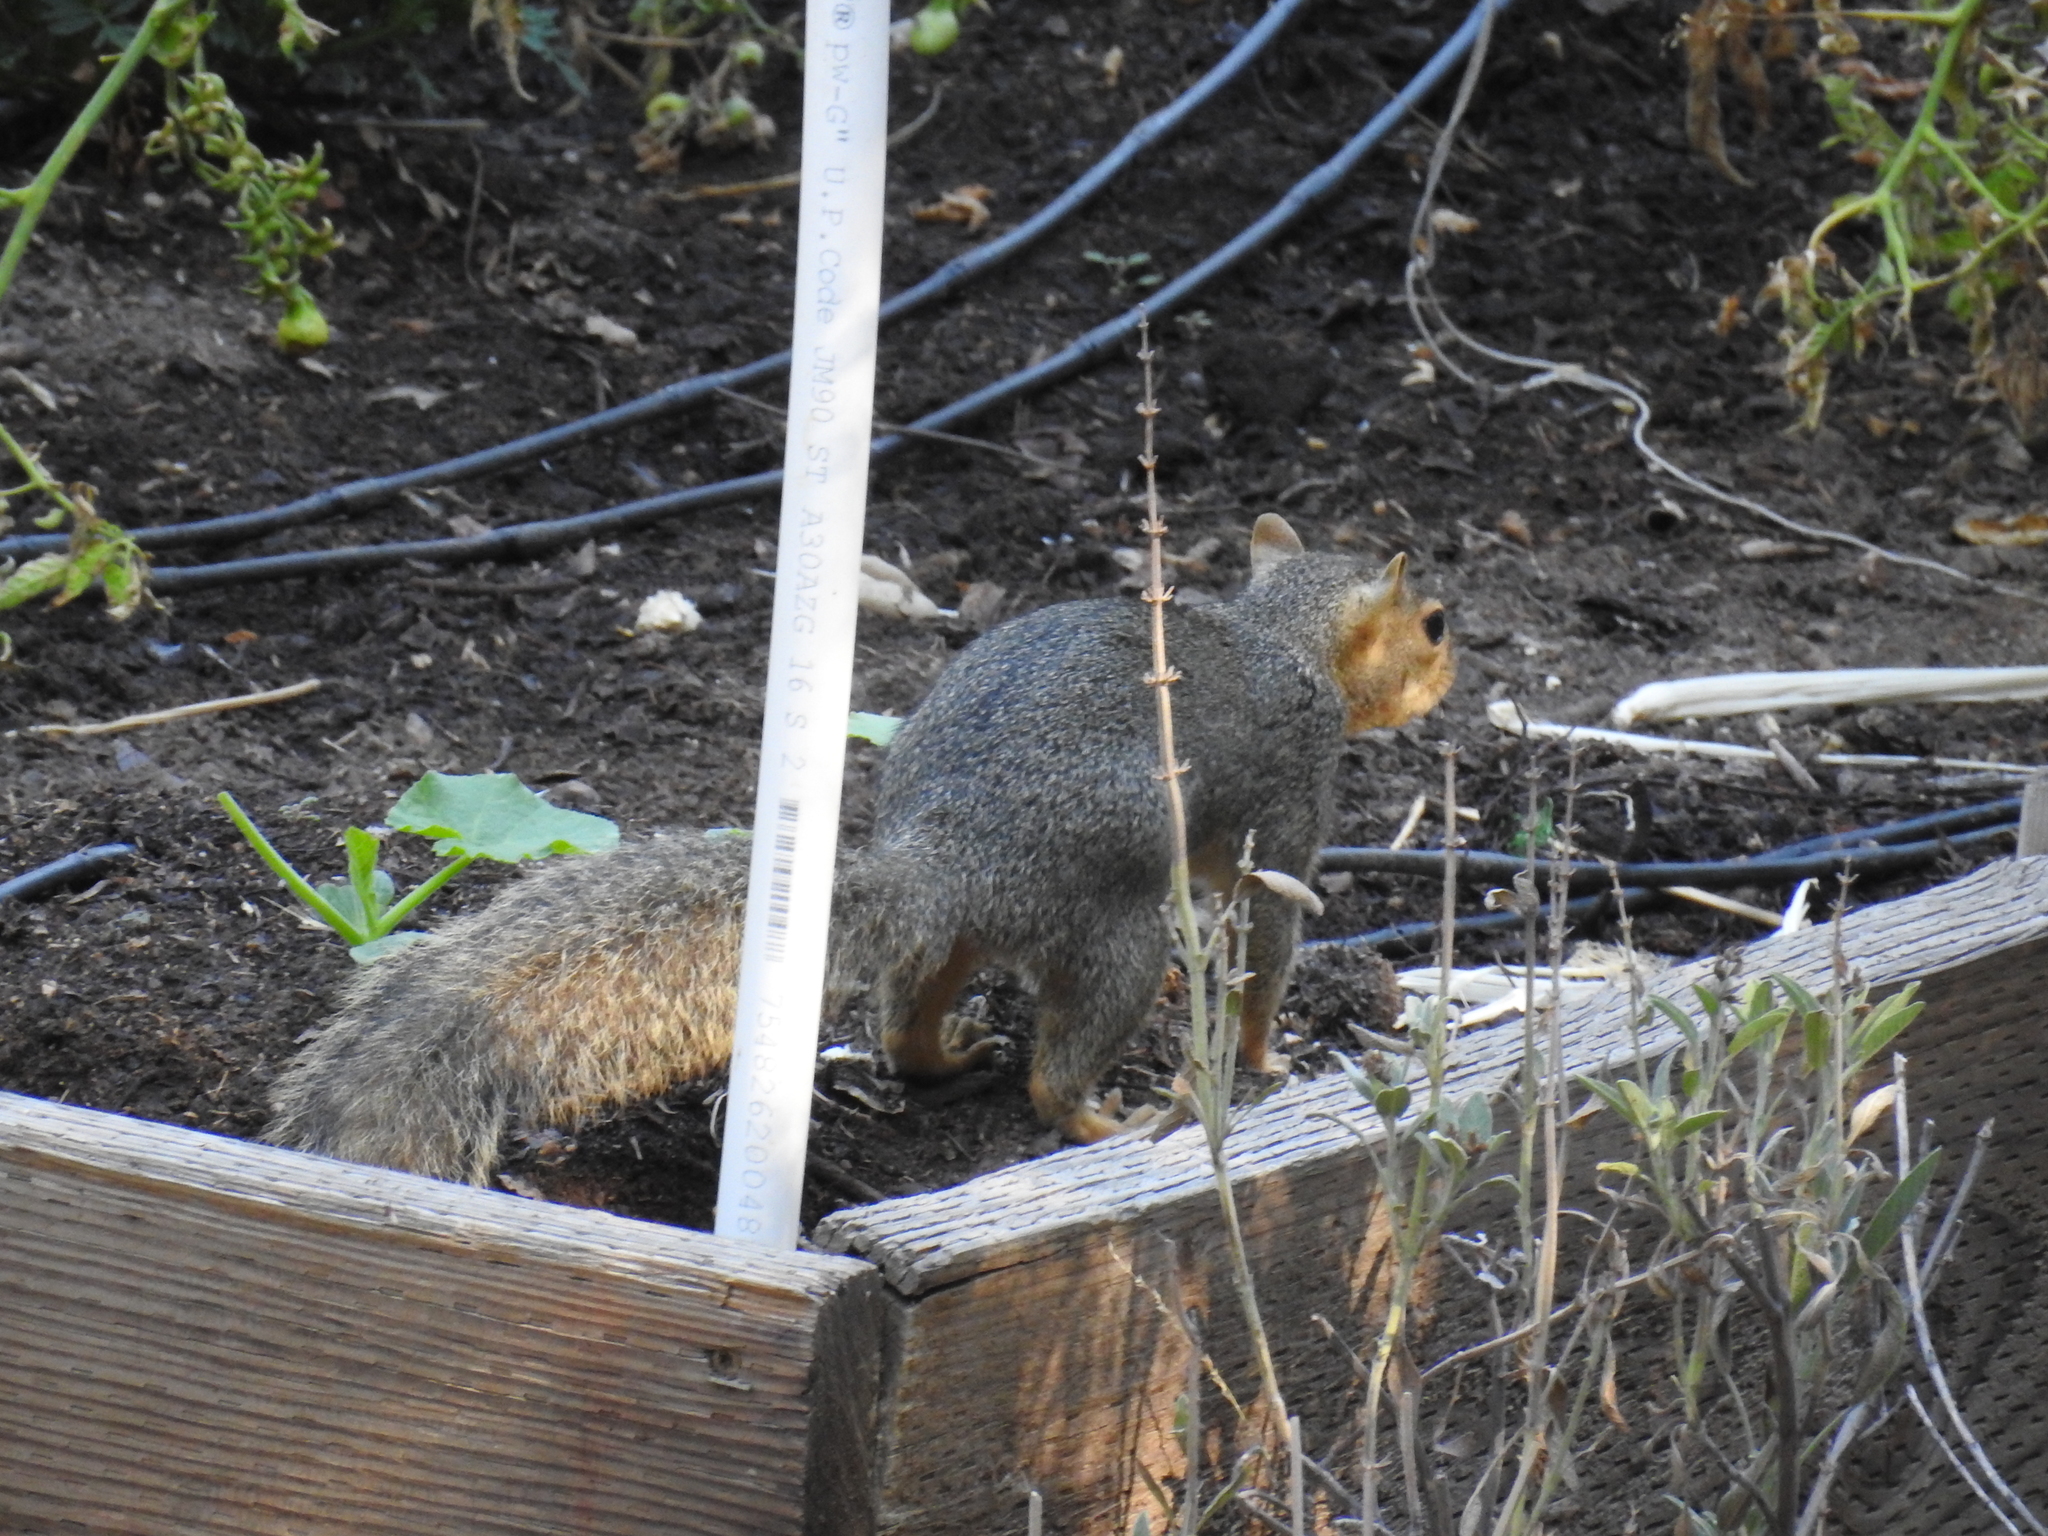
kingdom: Animalia
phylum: Chordata
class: Mammalia
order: Rodentia
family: Sciuridae
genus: Sciurus
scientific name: Sciurus niger
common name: Fox squirrel
